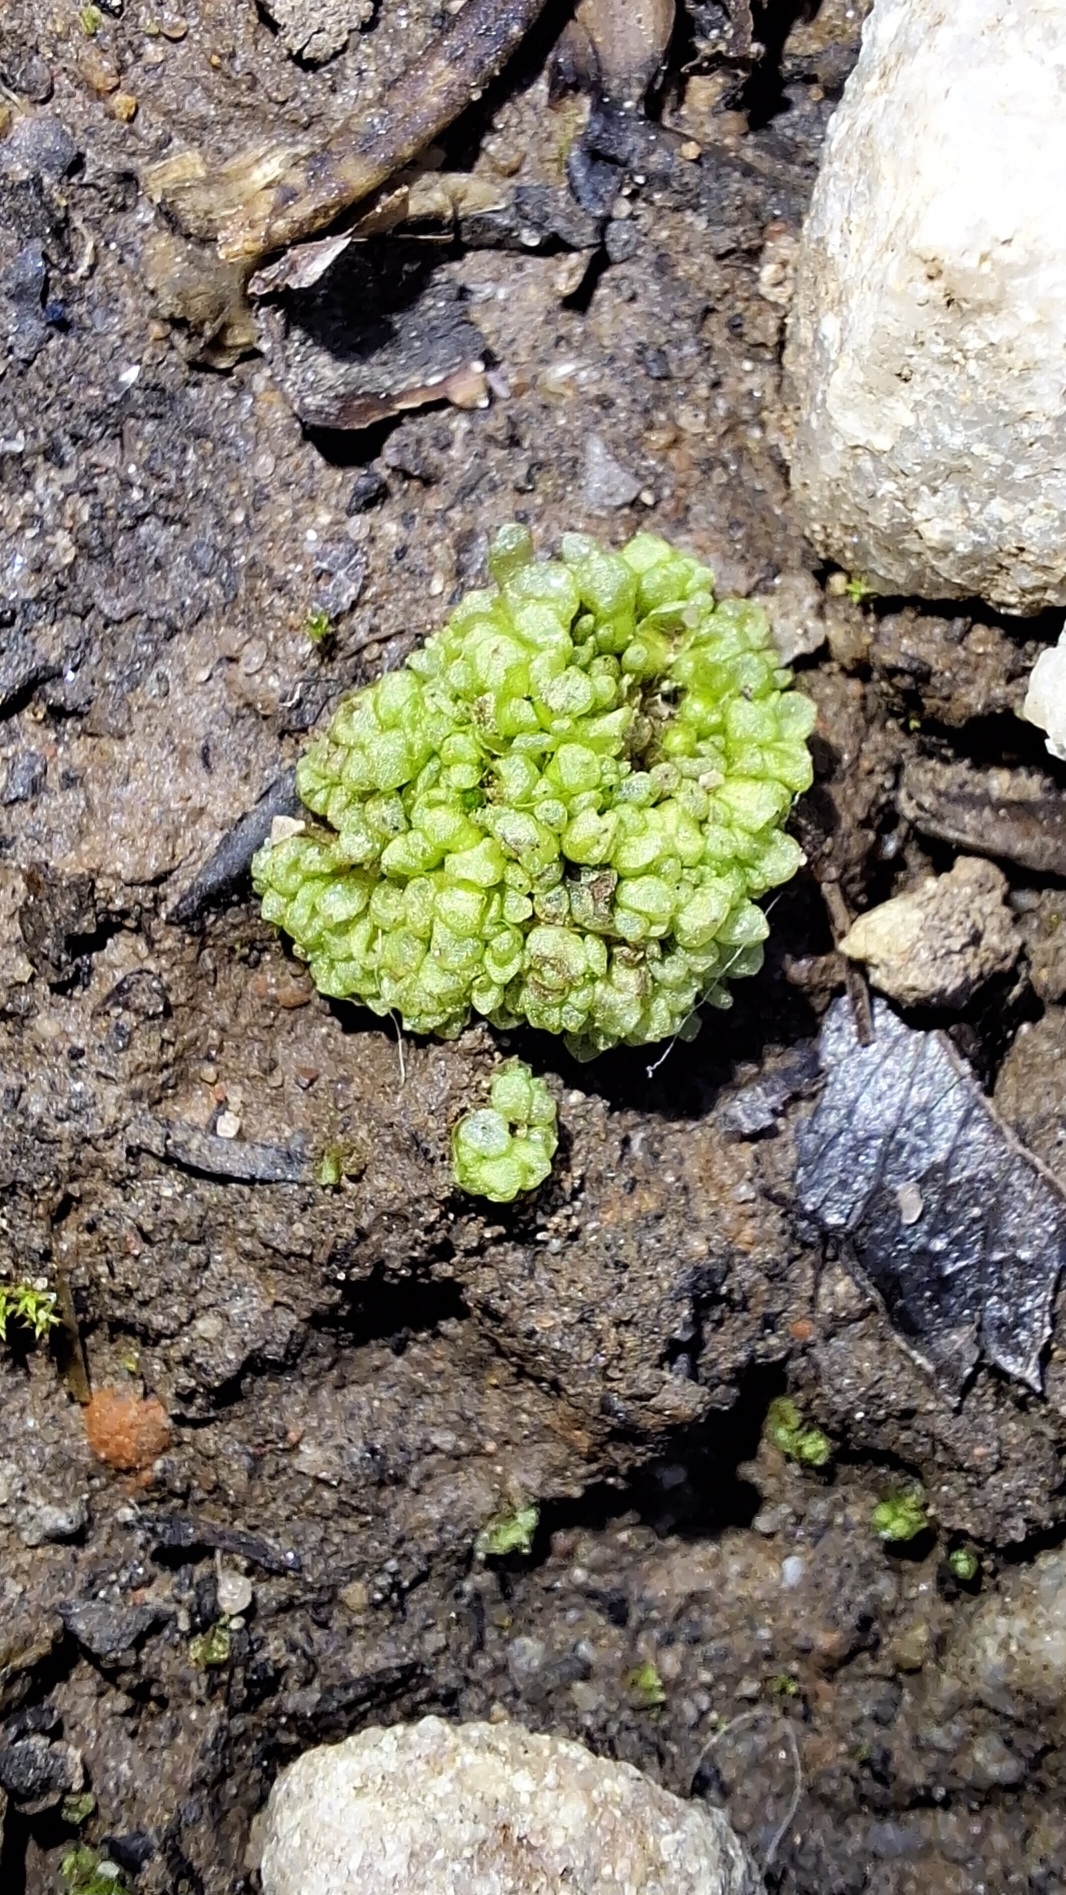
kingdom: Plantae
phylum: Marchantiophyta
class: Marchantiopsida
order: Sphaerocarpales
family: Sphaerocarpaceae
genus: Sphaerocarpos
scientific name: Sphaerocarpos texanus
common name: Texas balloonwort
